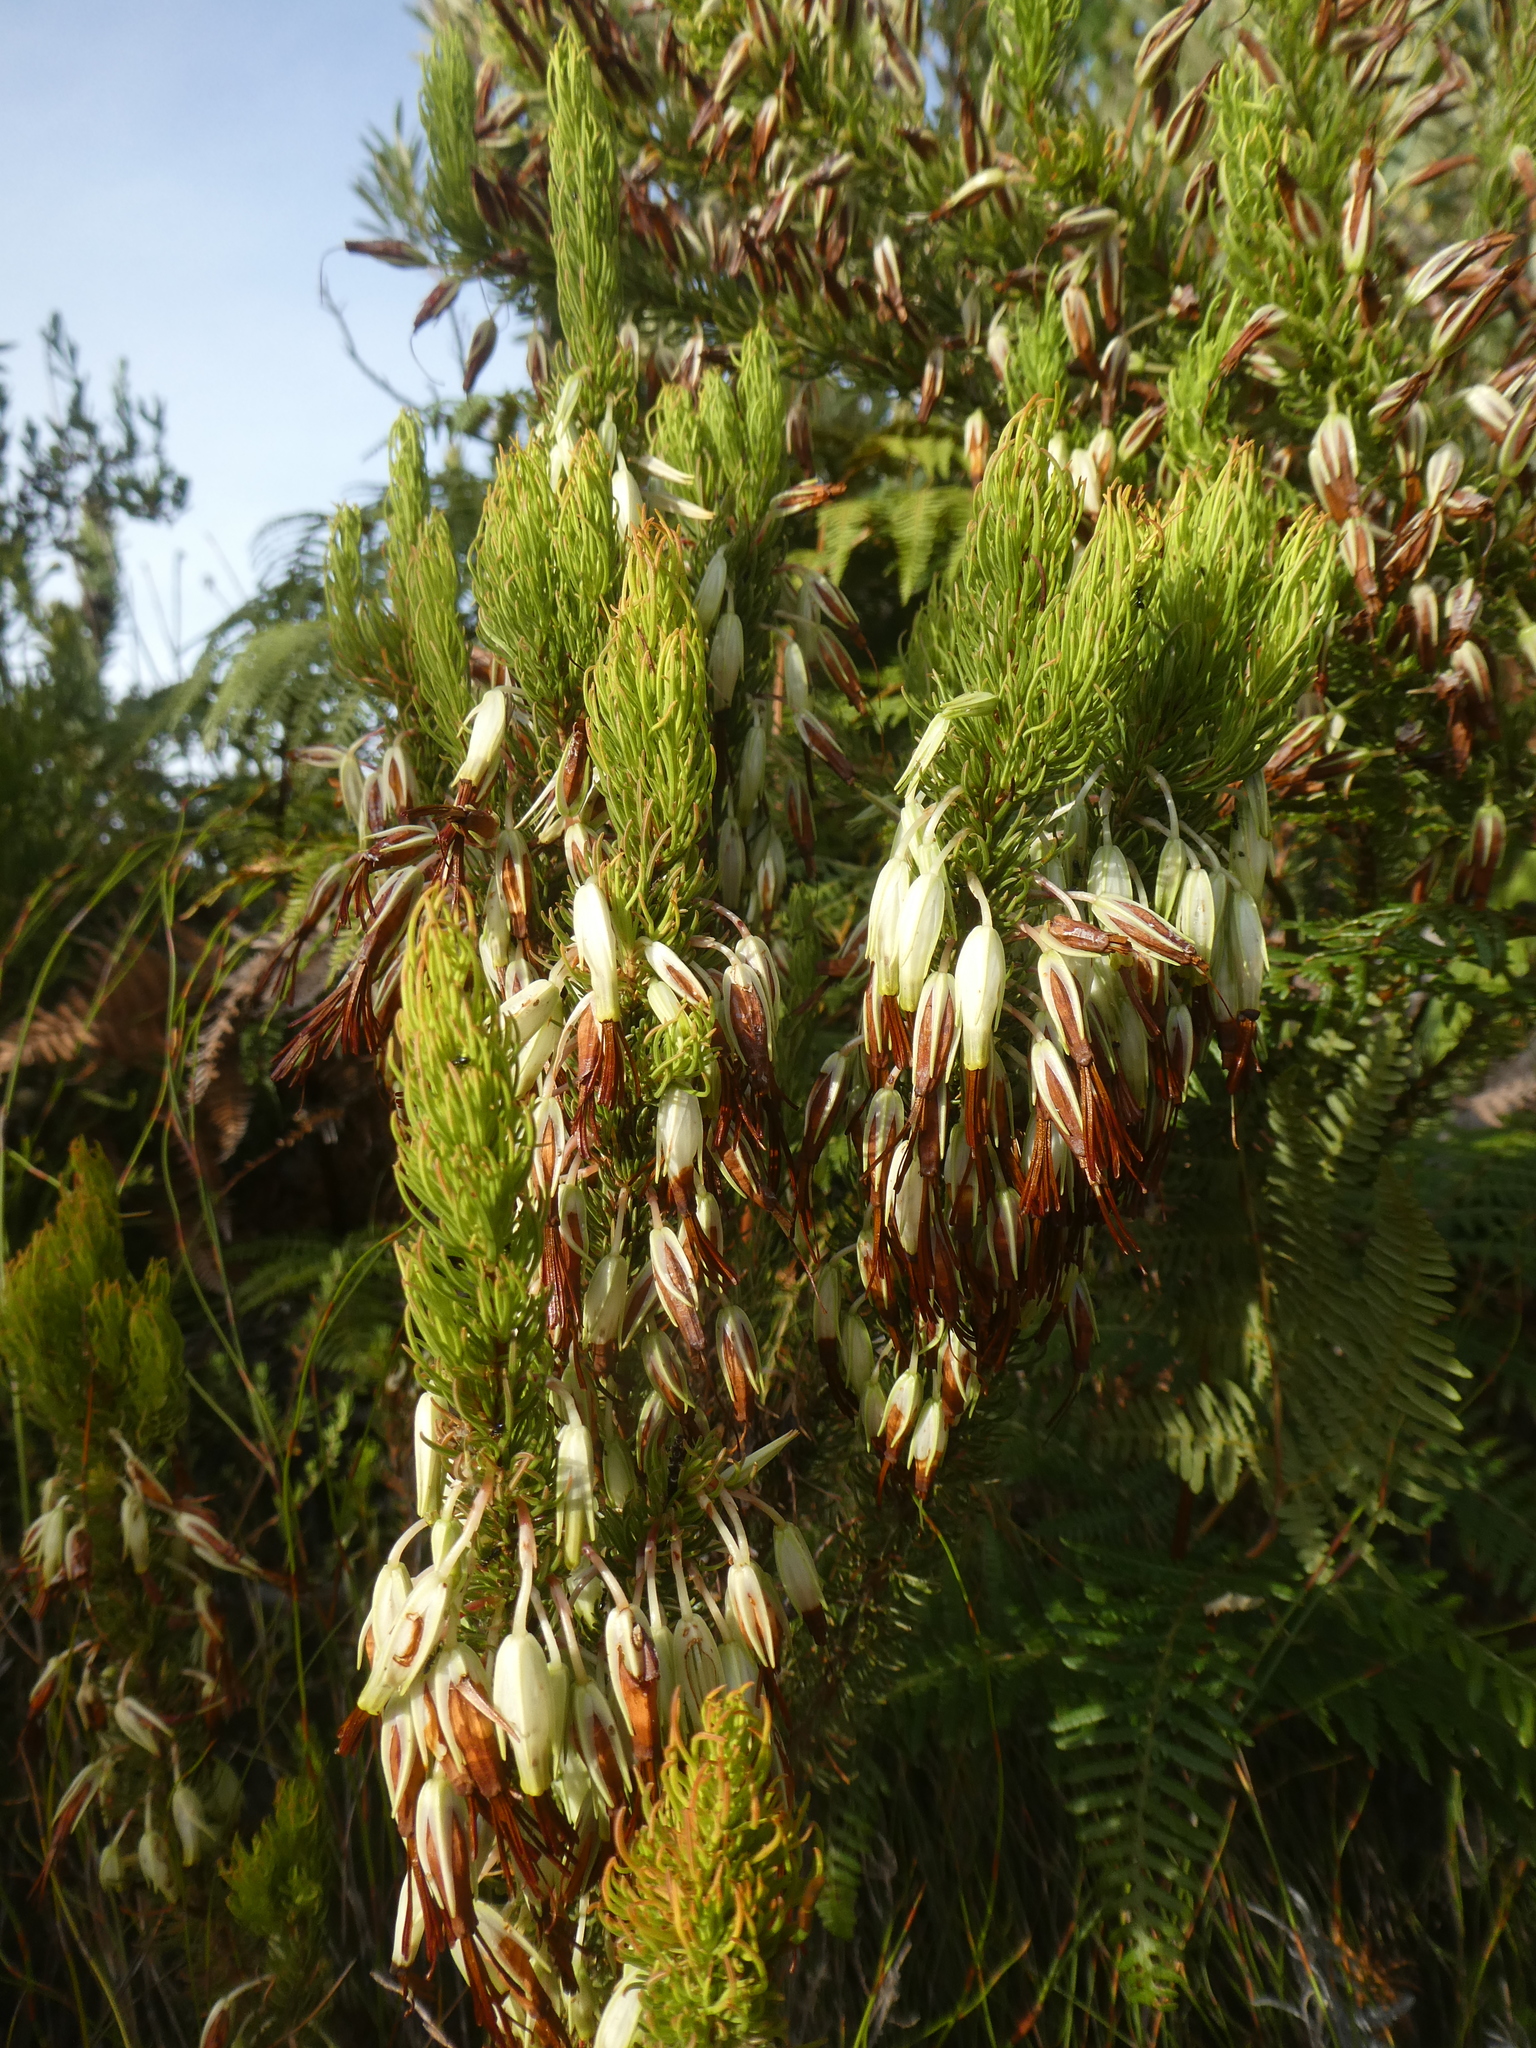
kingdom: Plantae
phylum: Tracheophyta
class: Magnoliopsida
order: Ericales
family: Ericaceae
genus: Erica
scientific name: Erica plukenetii
